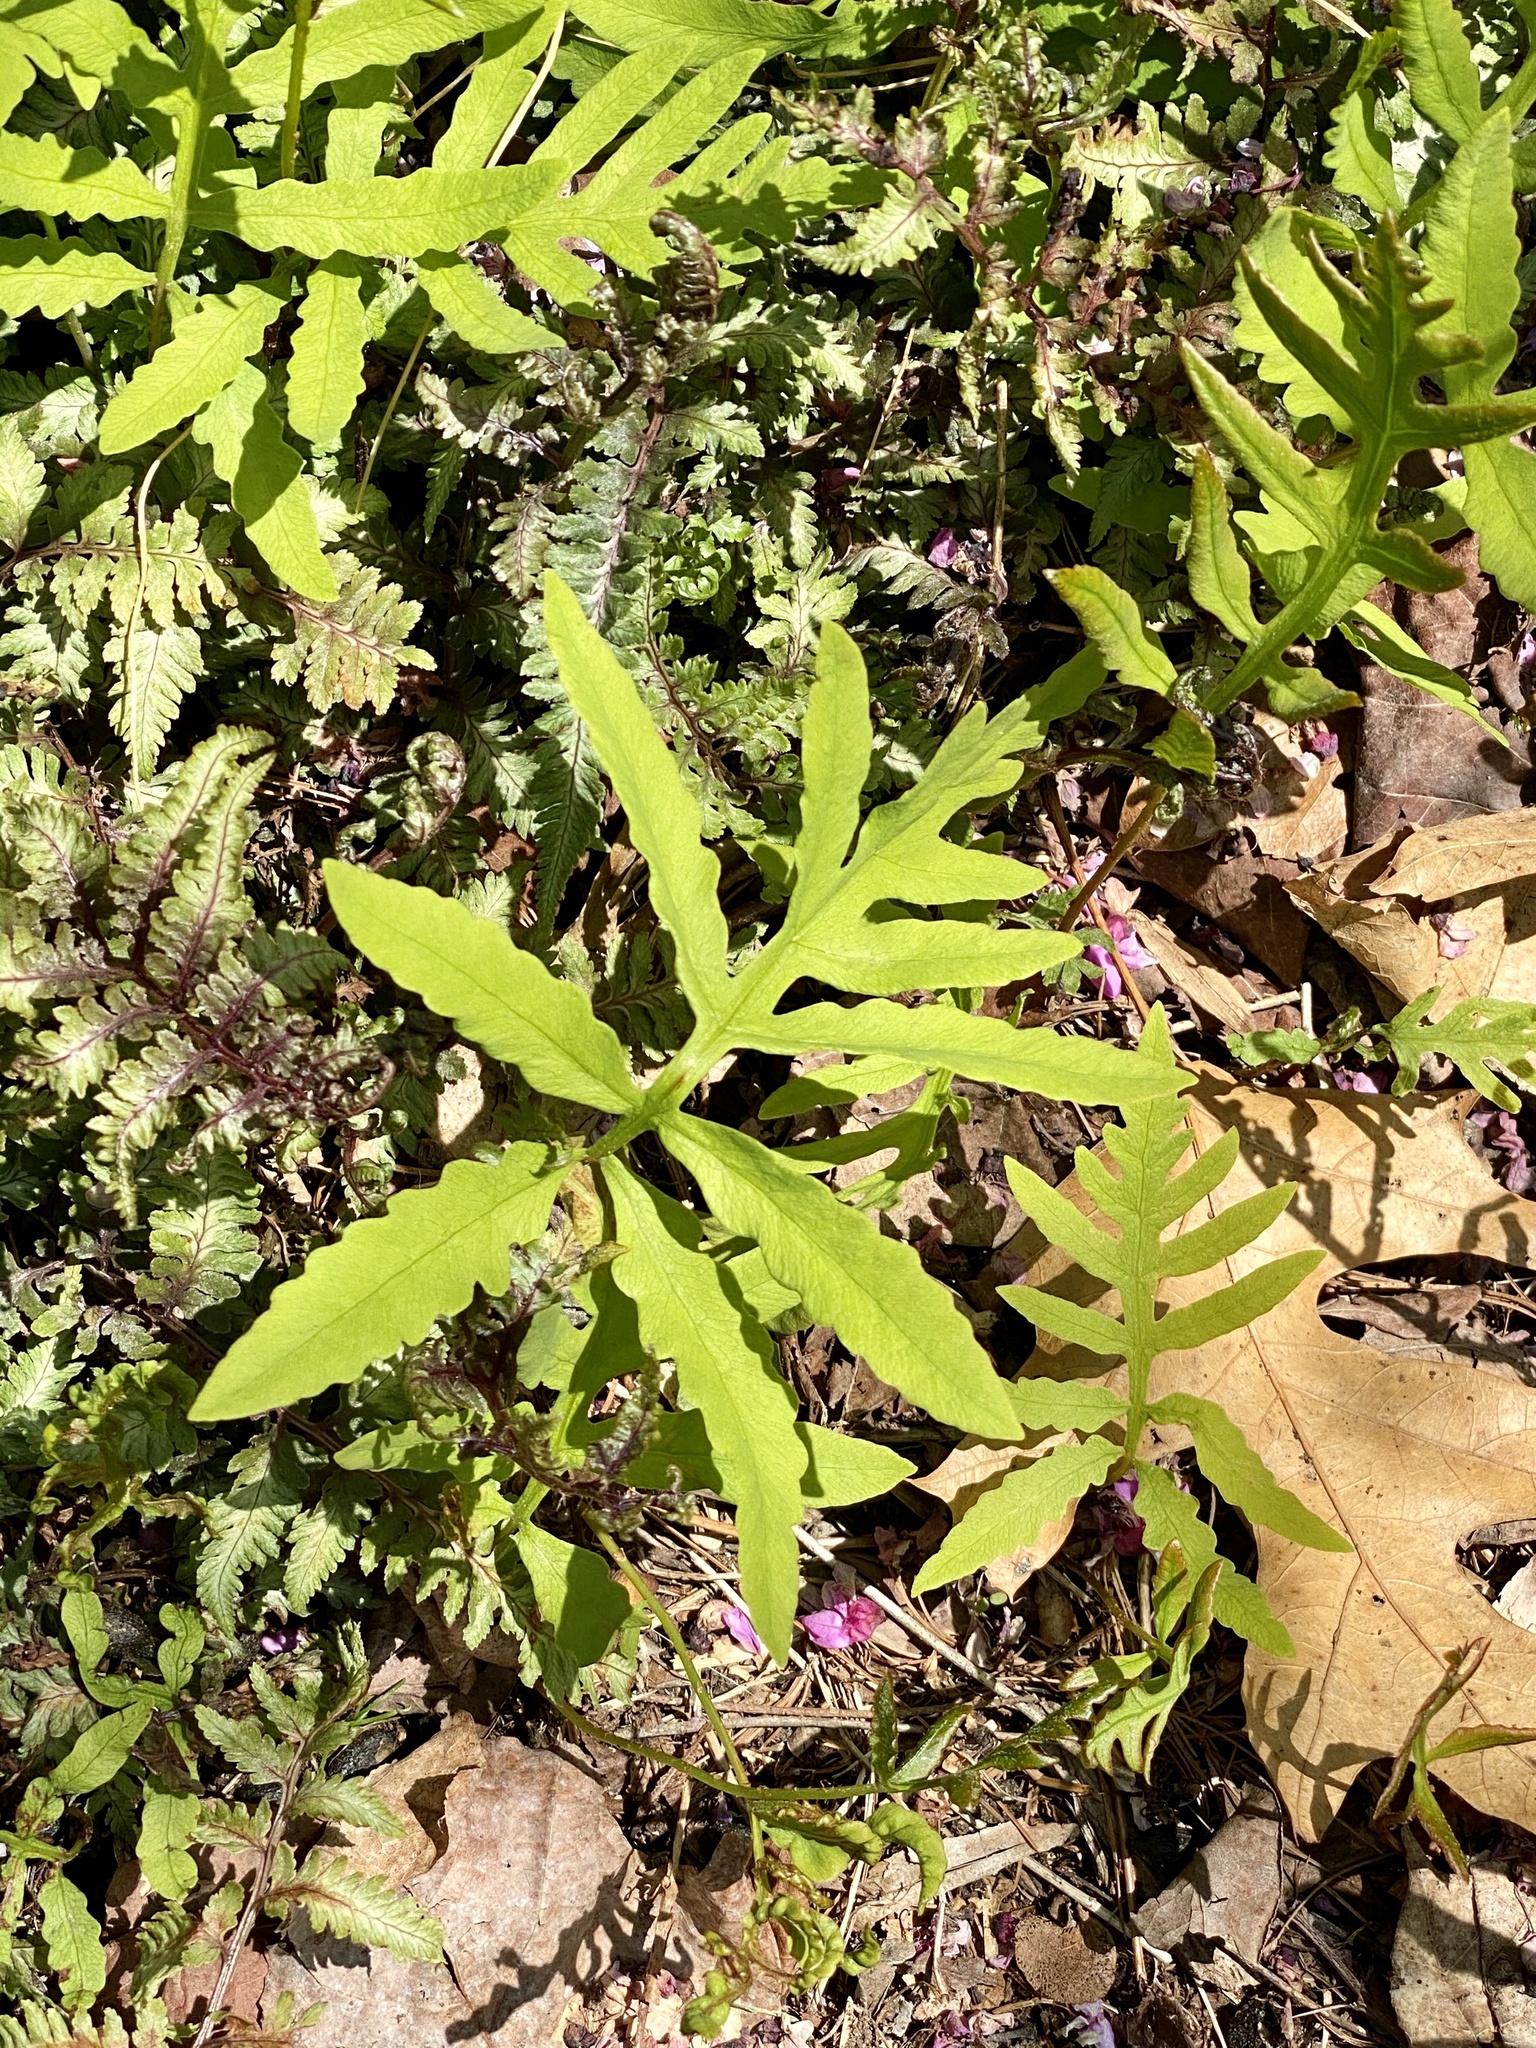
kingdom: Plantae
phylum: Tracheophyta
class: Polypodiopsida
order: Polypodiales
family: Onocleaceae
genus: Onoclea
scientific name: Onoclea sensibilis
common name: Sensitive fern
